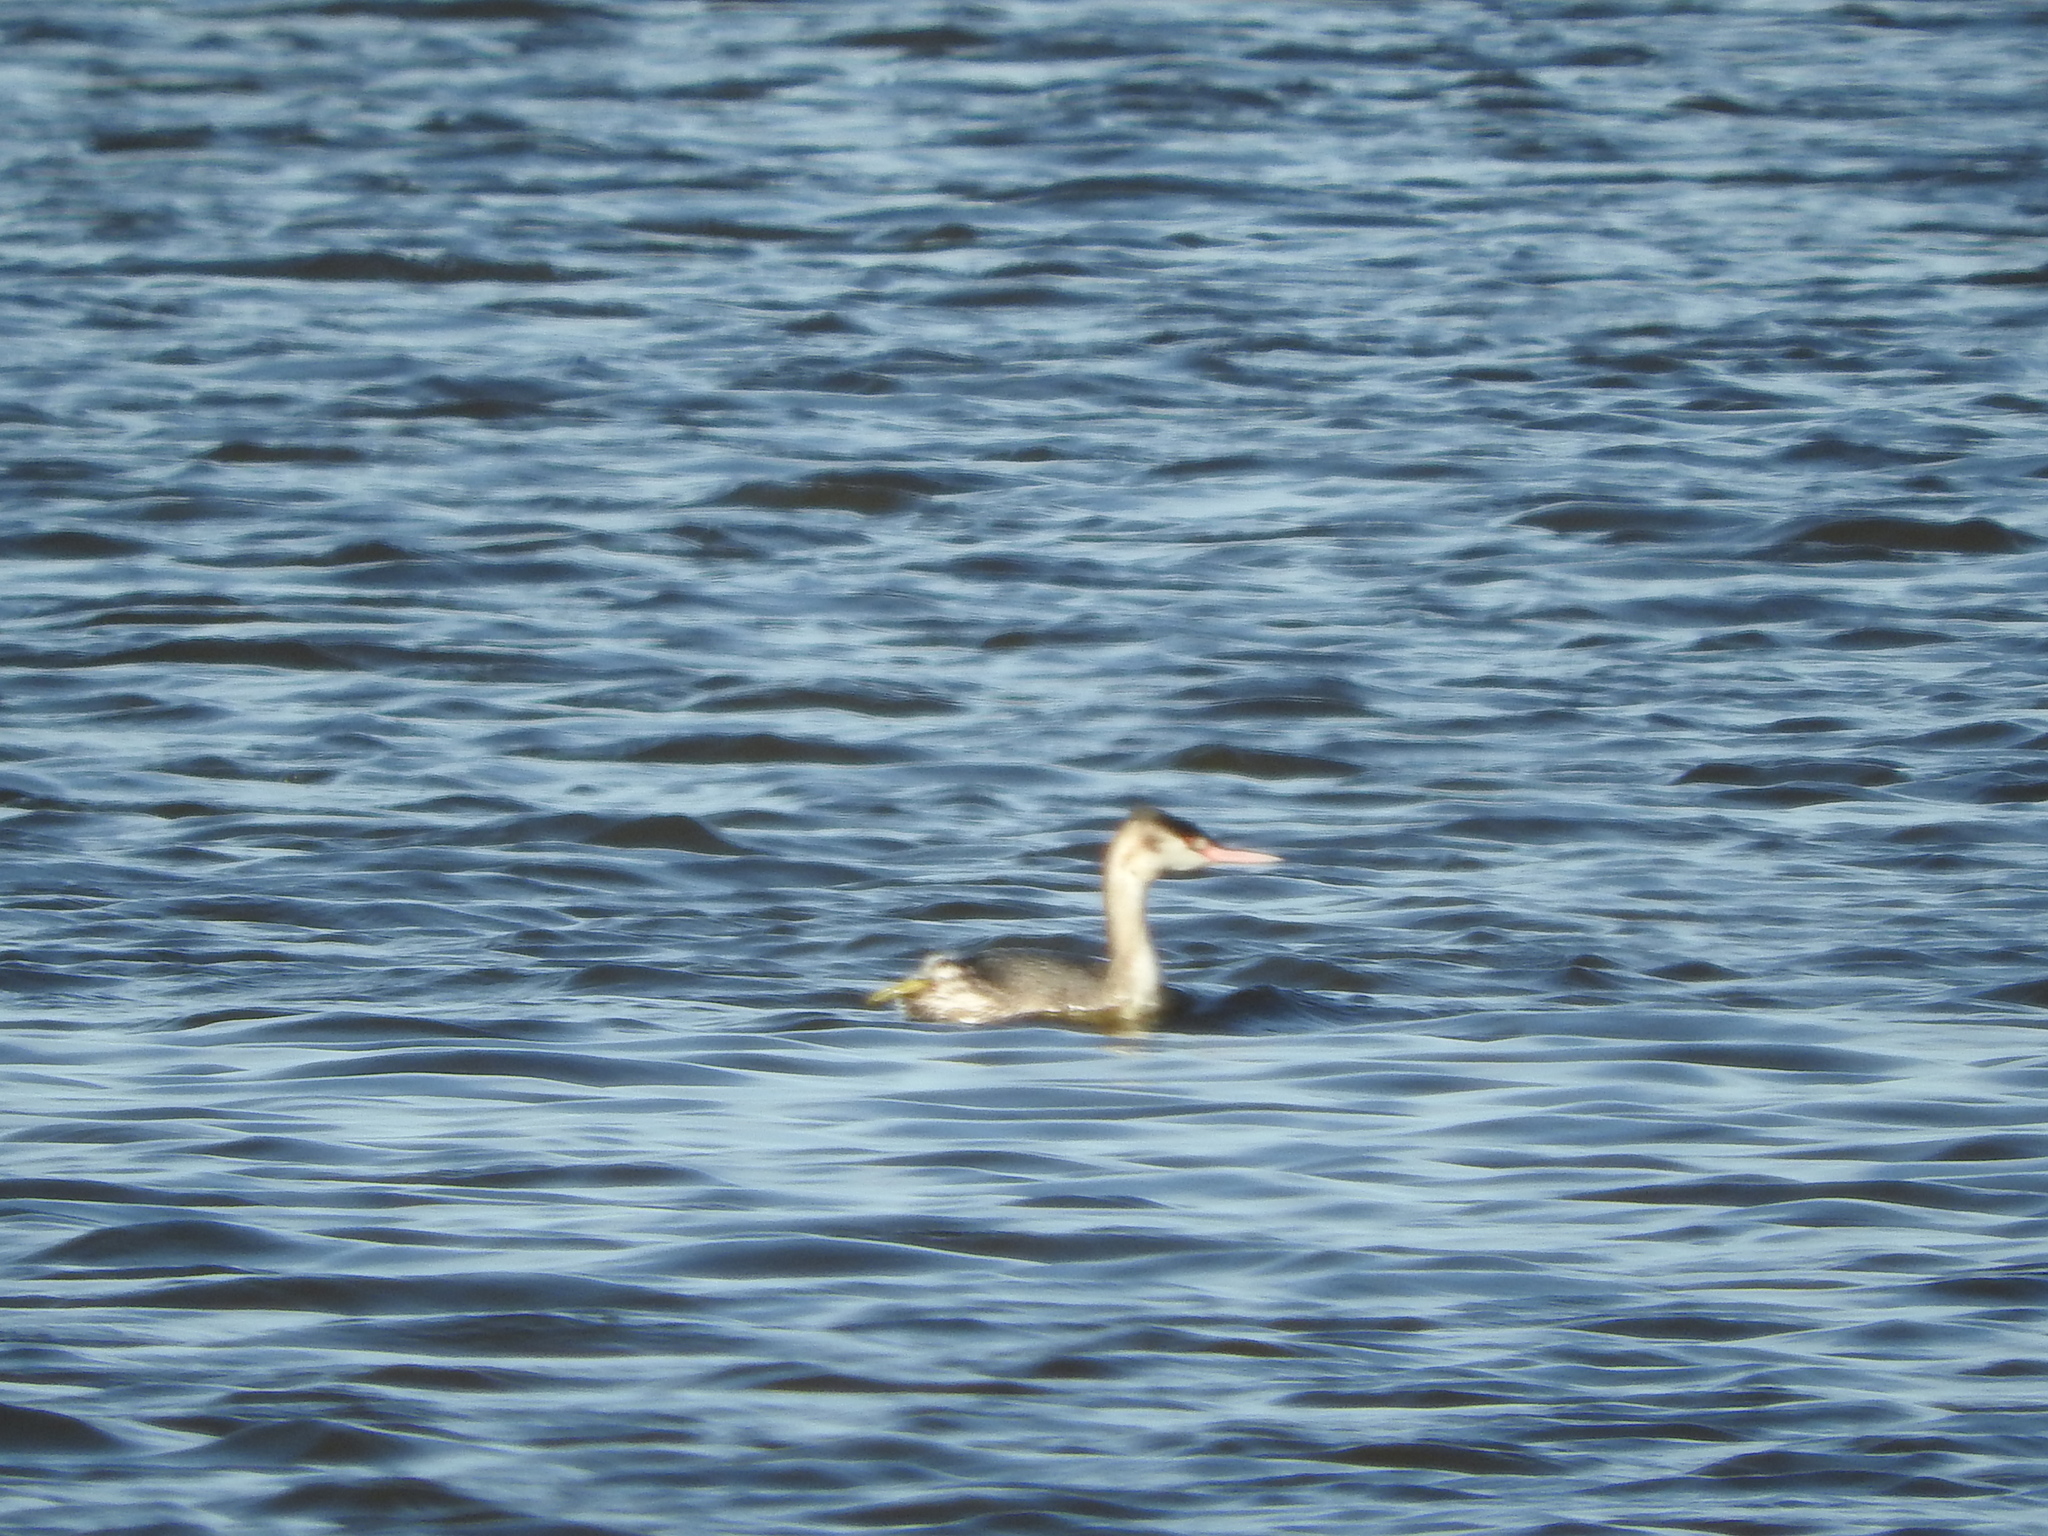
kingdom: Animalia
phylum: Chordata
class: Aves
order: Podicipediformes
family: Podicipedidae
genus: Podiceps
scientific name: Podiceps cristatus
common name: Great crested grebe
